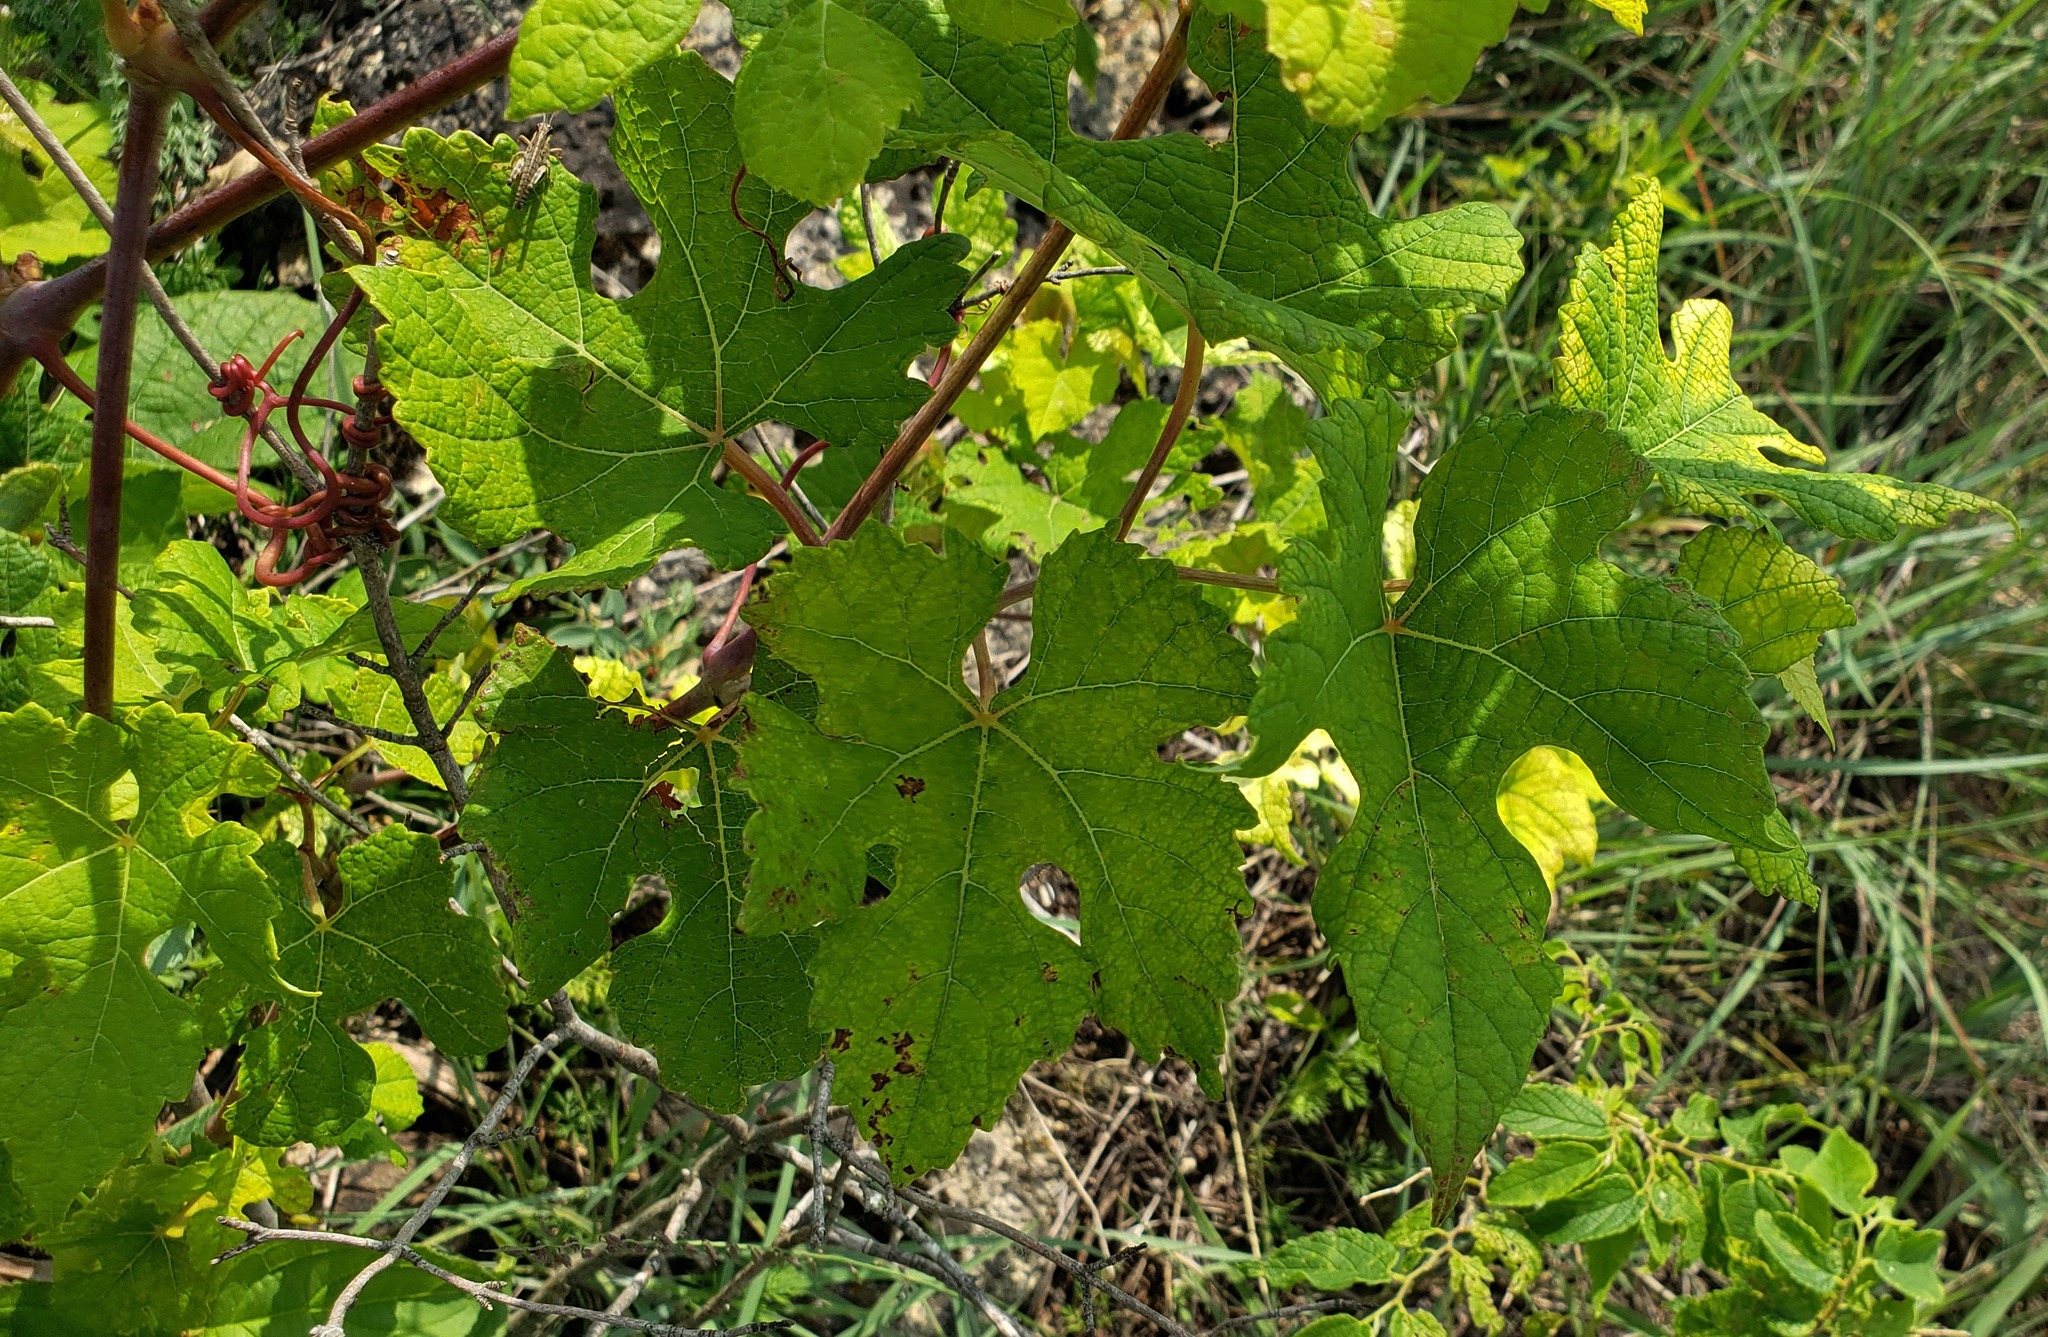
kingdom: Plantae
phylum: Tracheophyta
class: Magnoliopsida
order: Vitales
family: Vitaceae
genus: Vitis
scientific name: Vitis aestivalis
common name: Pigeon grape
